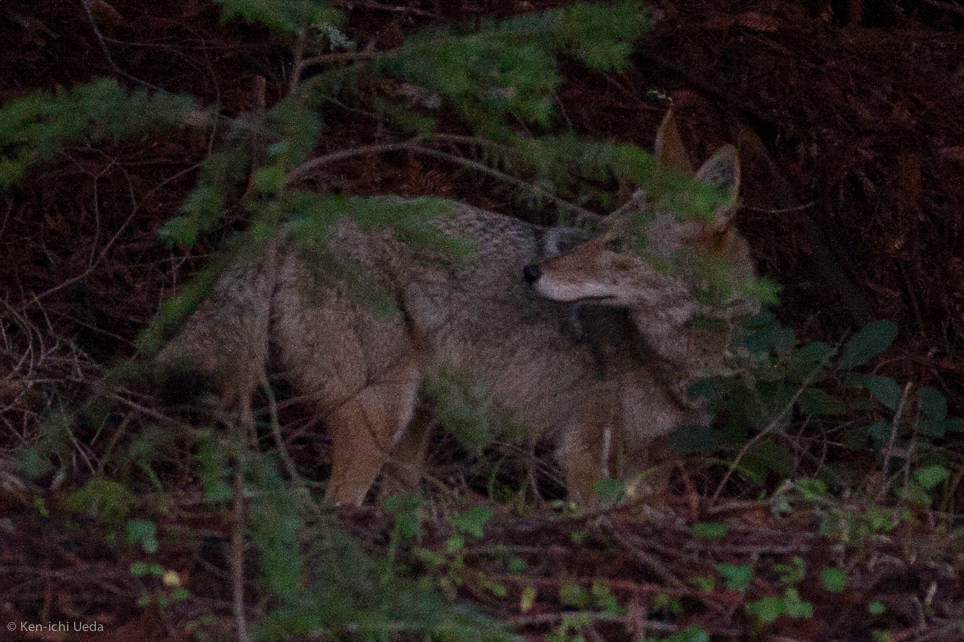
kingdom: Animalia
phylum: Chordata
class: Mammalia
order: Carnivora
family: Canidae
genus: Canis
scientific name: Canis latrans
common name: Coyote
